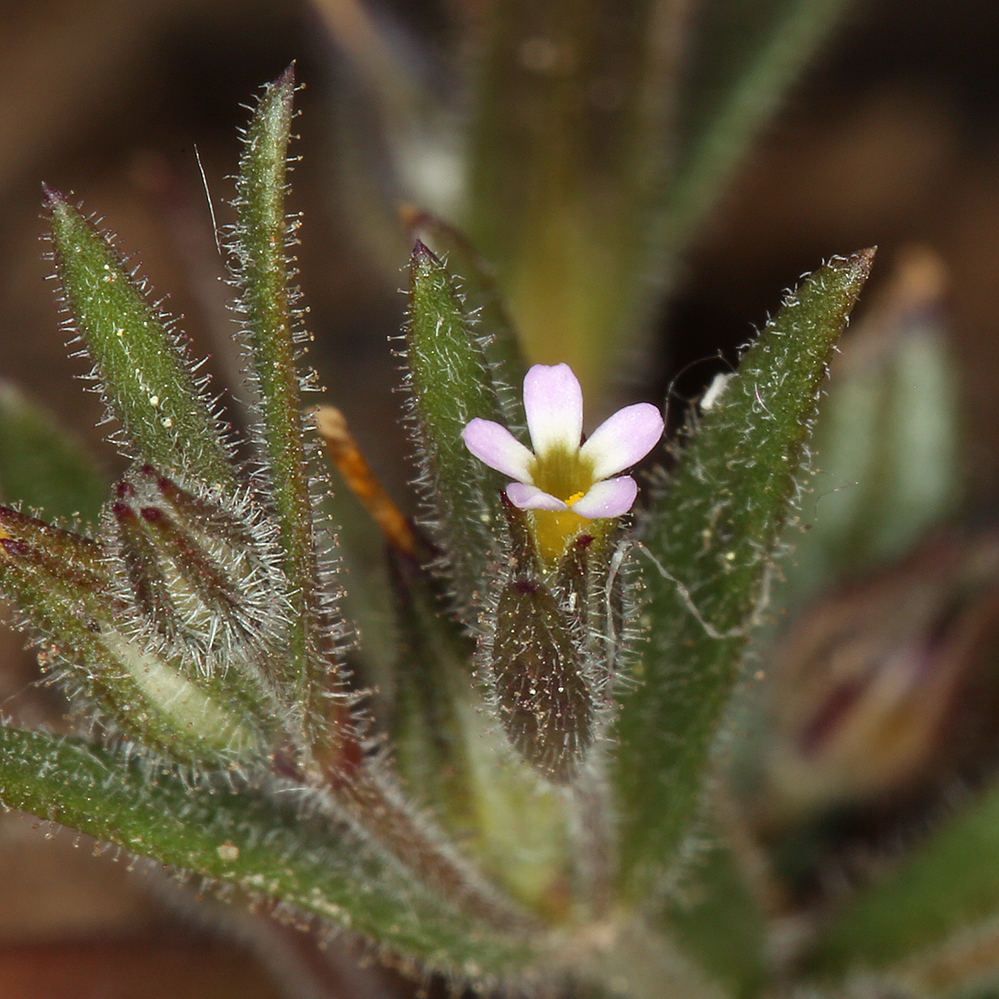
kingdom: Plantae
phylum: Tracheophyta
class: Magnoliopsida
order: Ericales
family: Polemoniaceae
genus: Phlox
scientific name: Phlox gracilis
